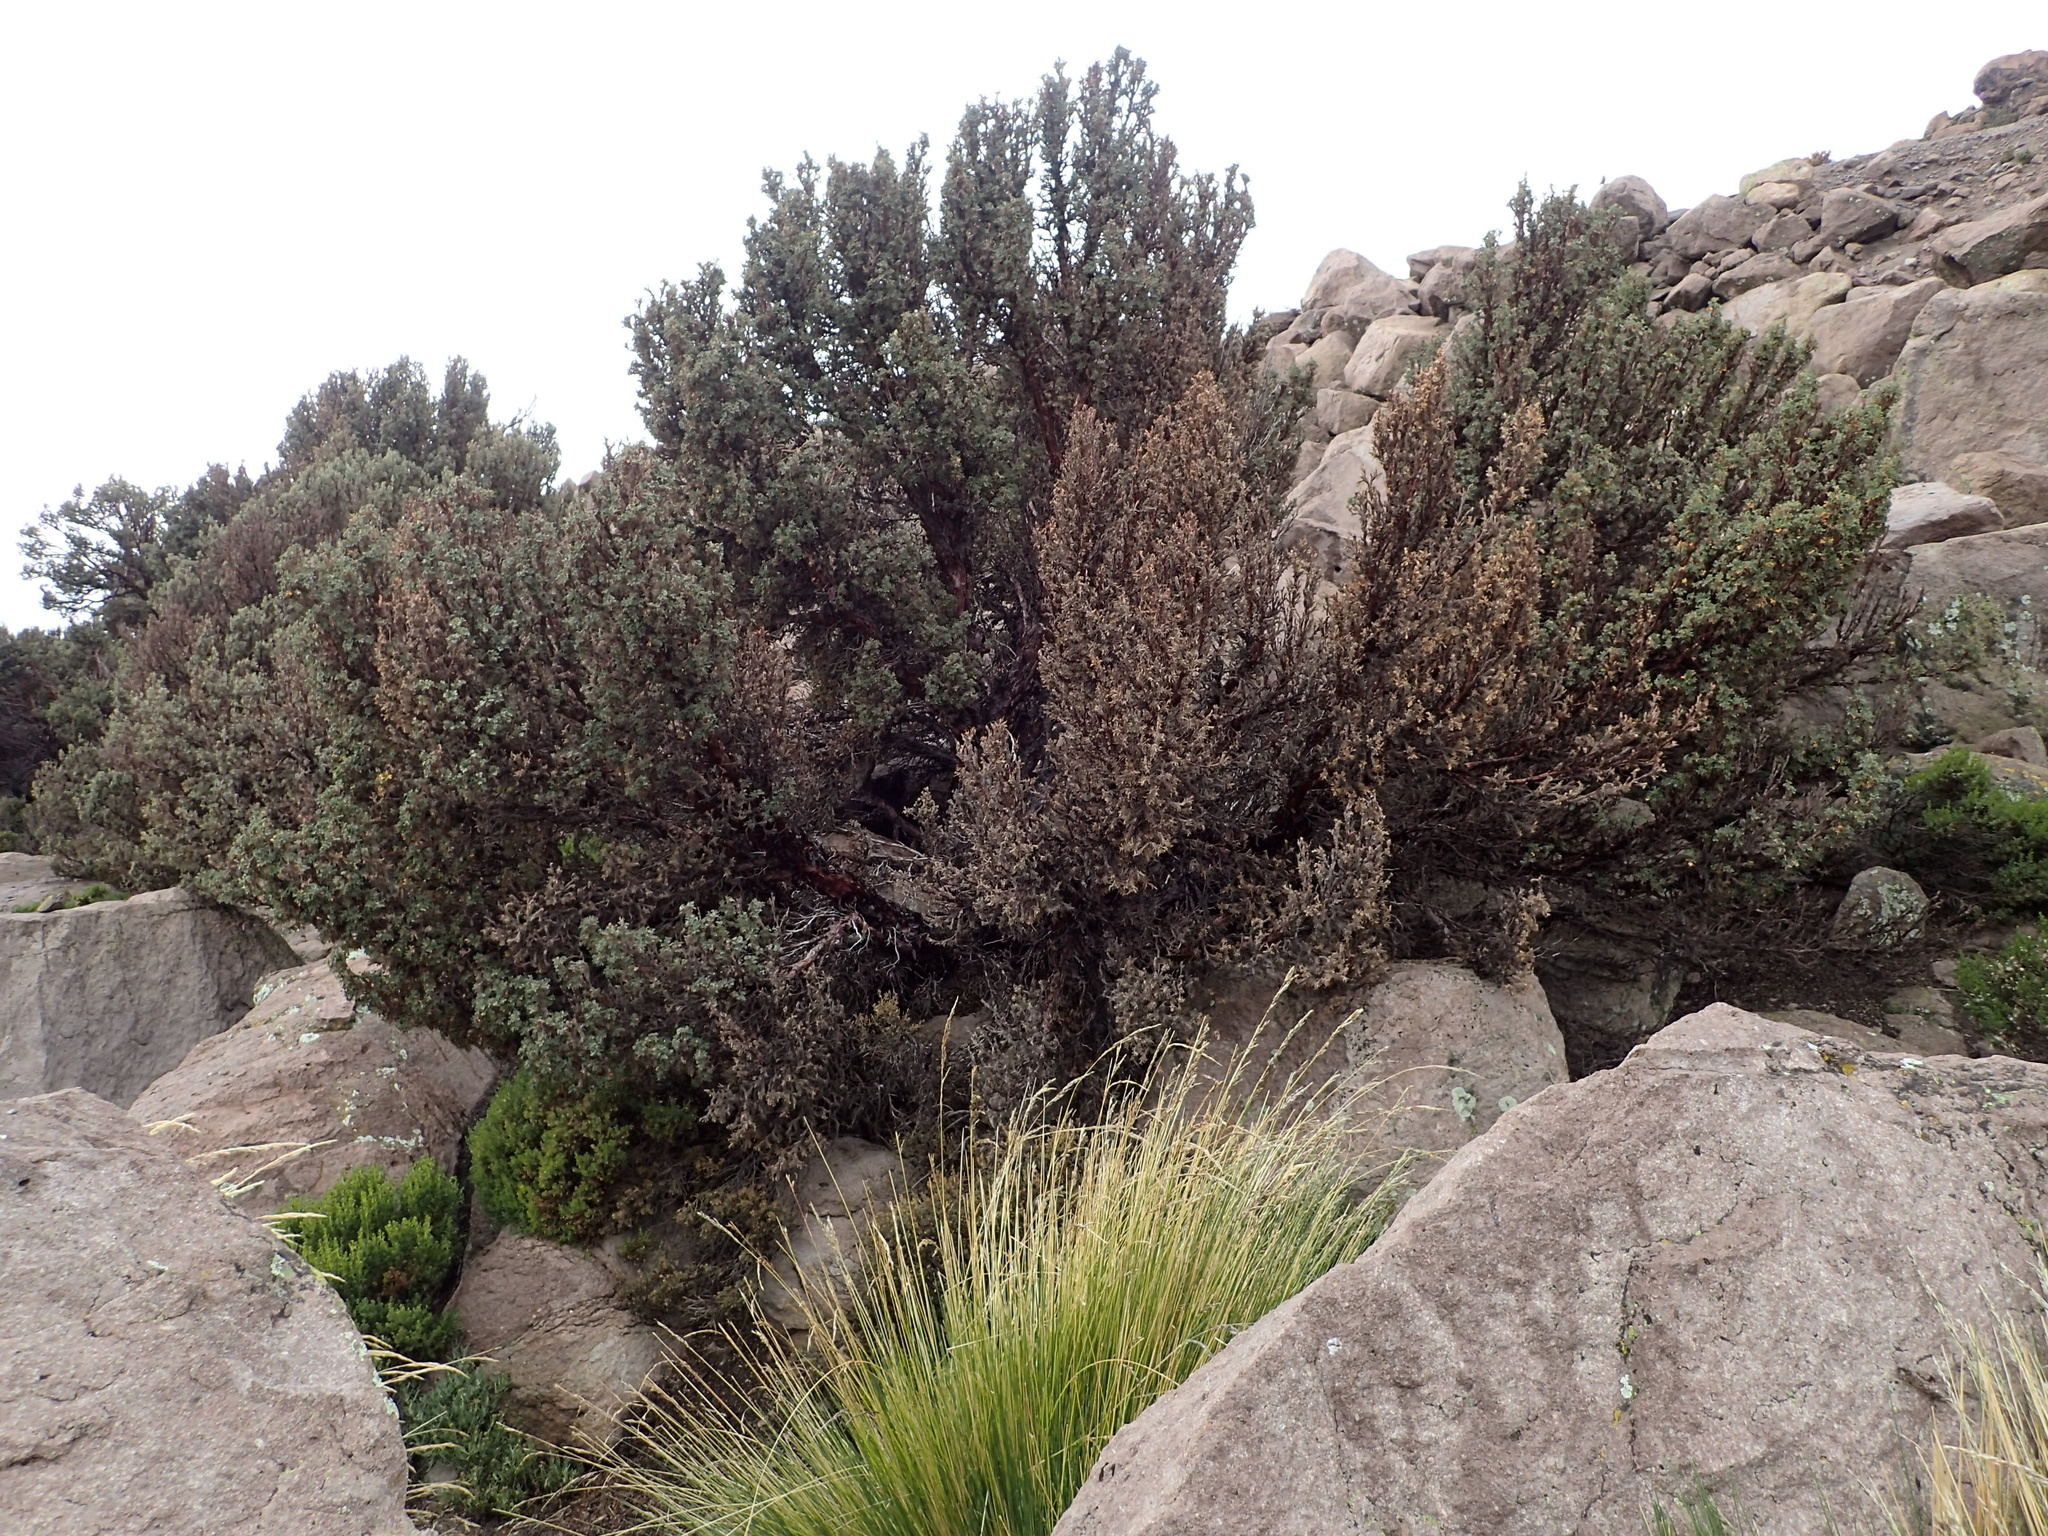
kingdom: Plantae
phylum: Tracheophyta
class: Magnoliopsida
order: Rosales
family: Rosaceae
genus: Polylepis
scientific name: Polylepis tarapacana
